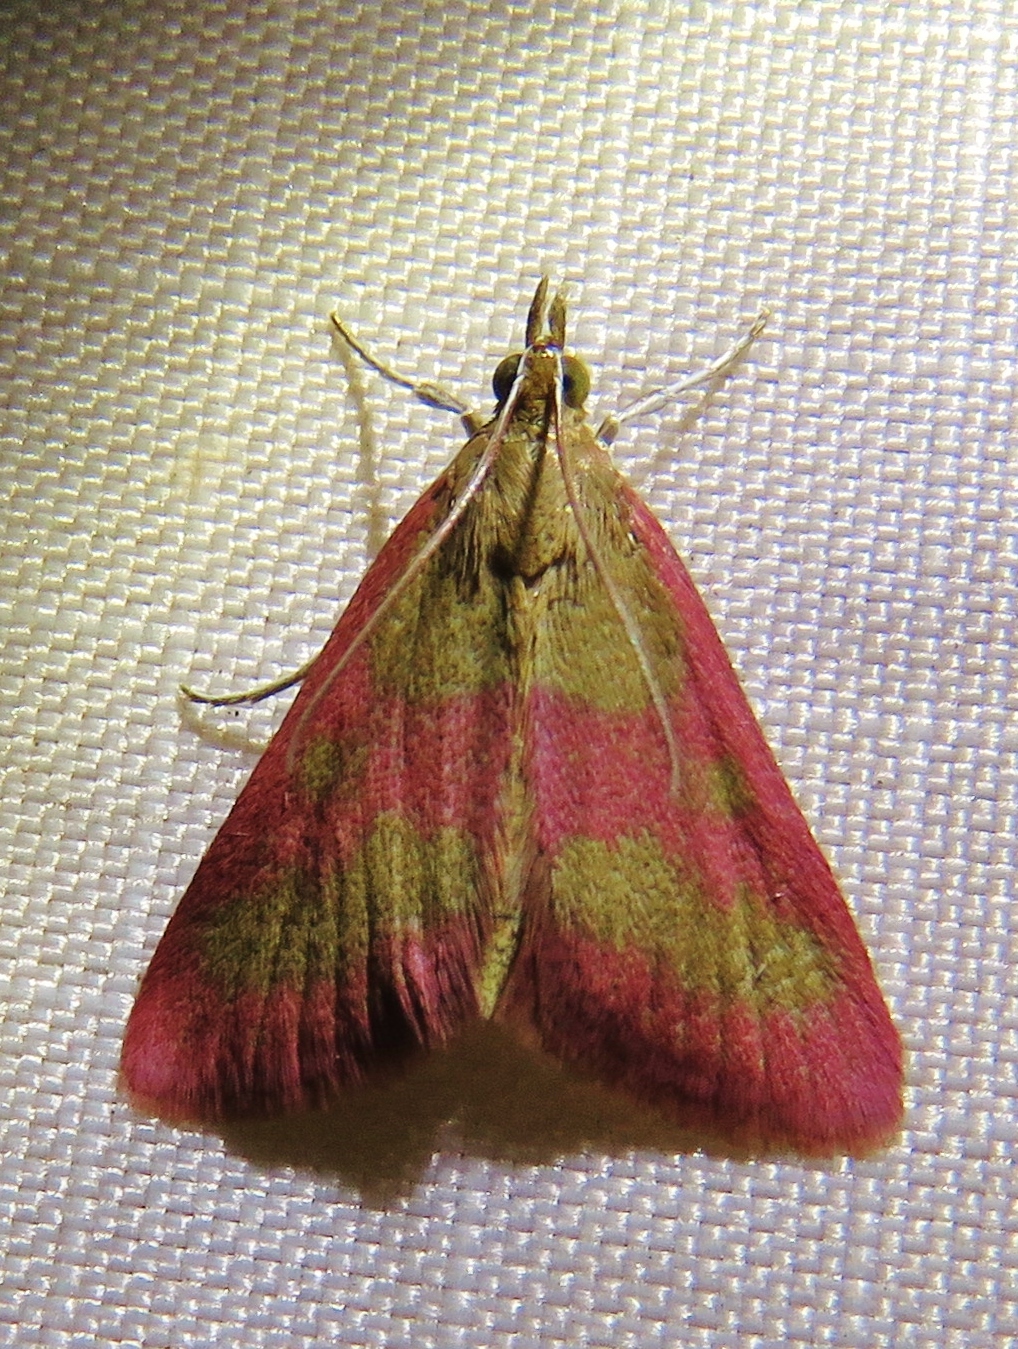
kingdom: Animalia
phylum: Arthropoda
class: Insecta
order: Lepidoptera
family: Crambidae
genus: Pyrausta
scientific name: Pyrausta laticlavia
